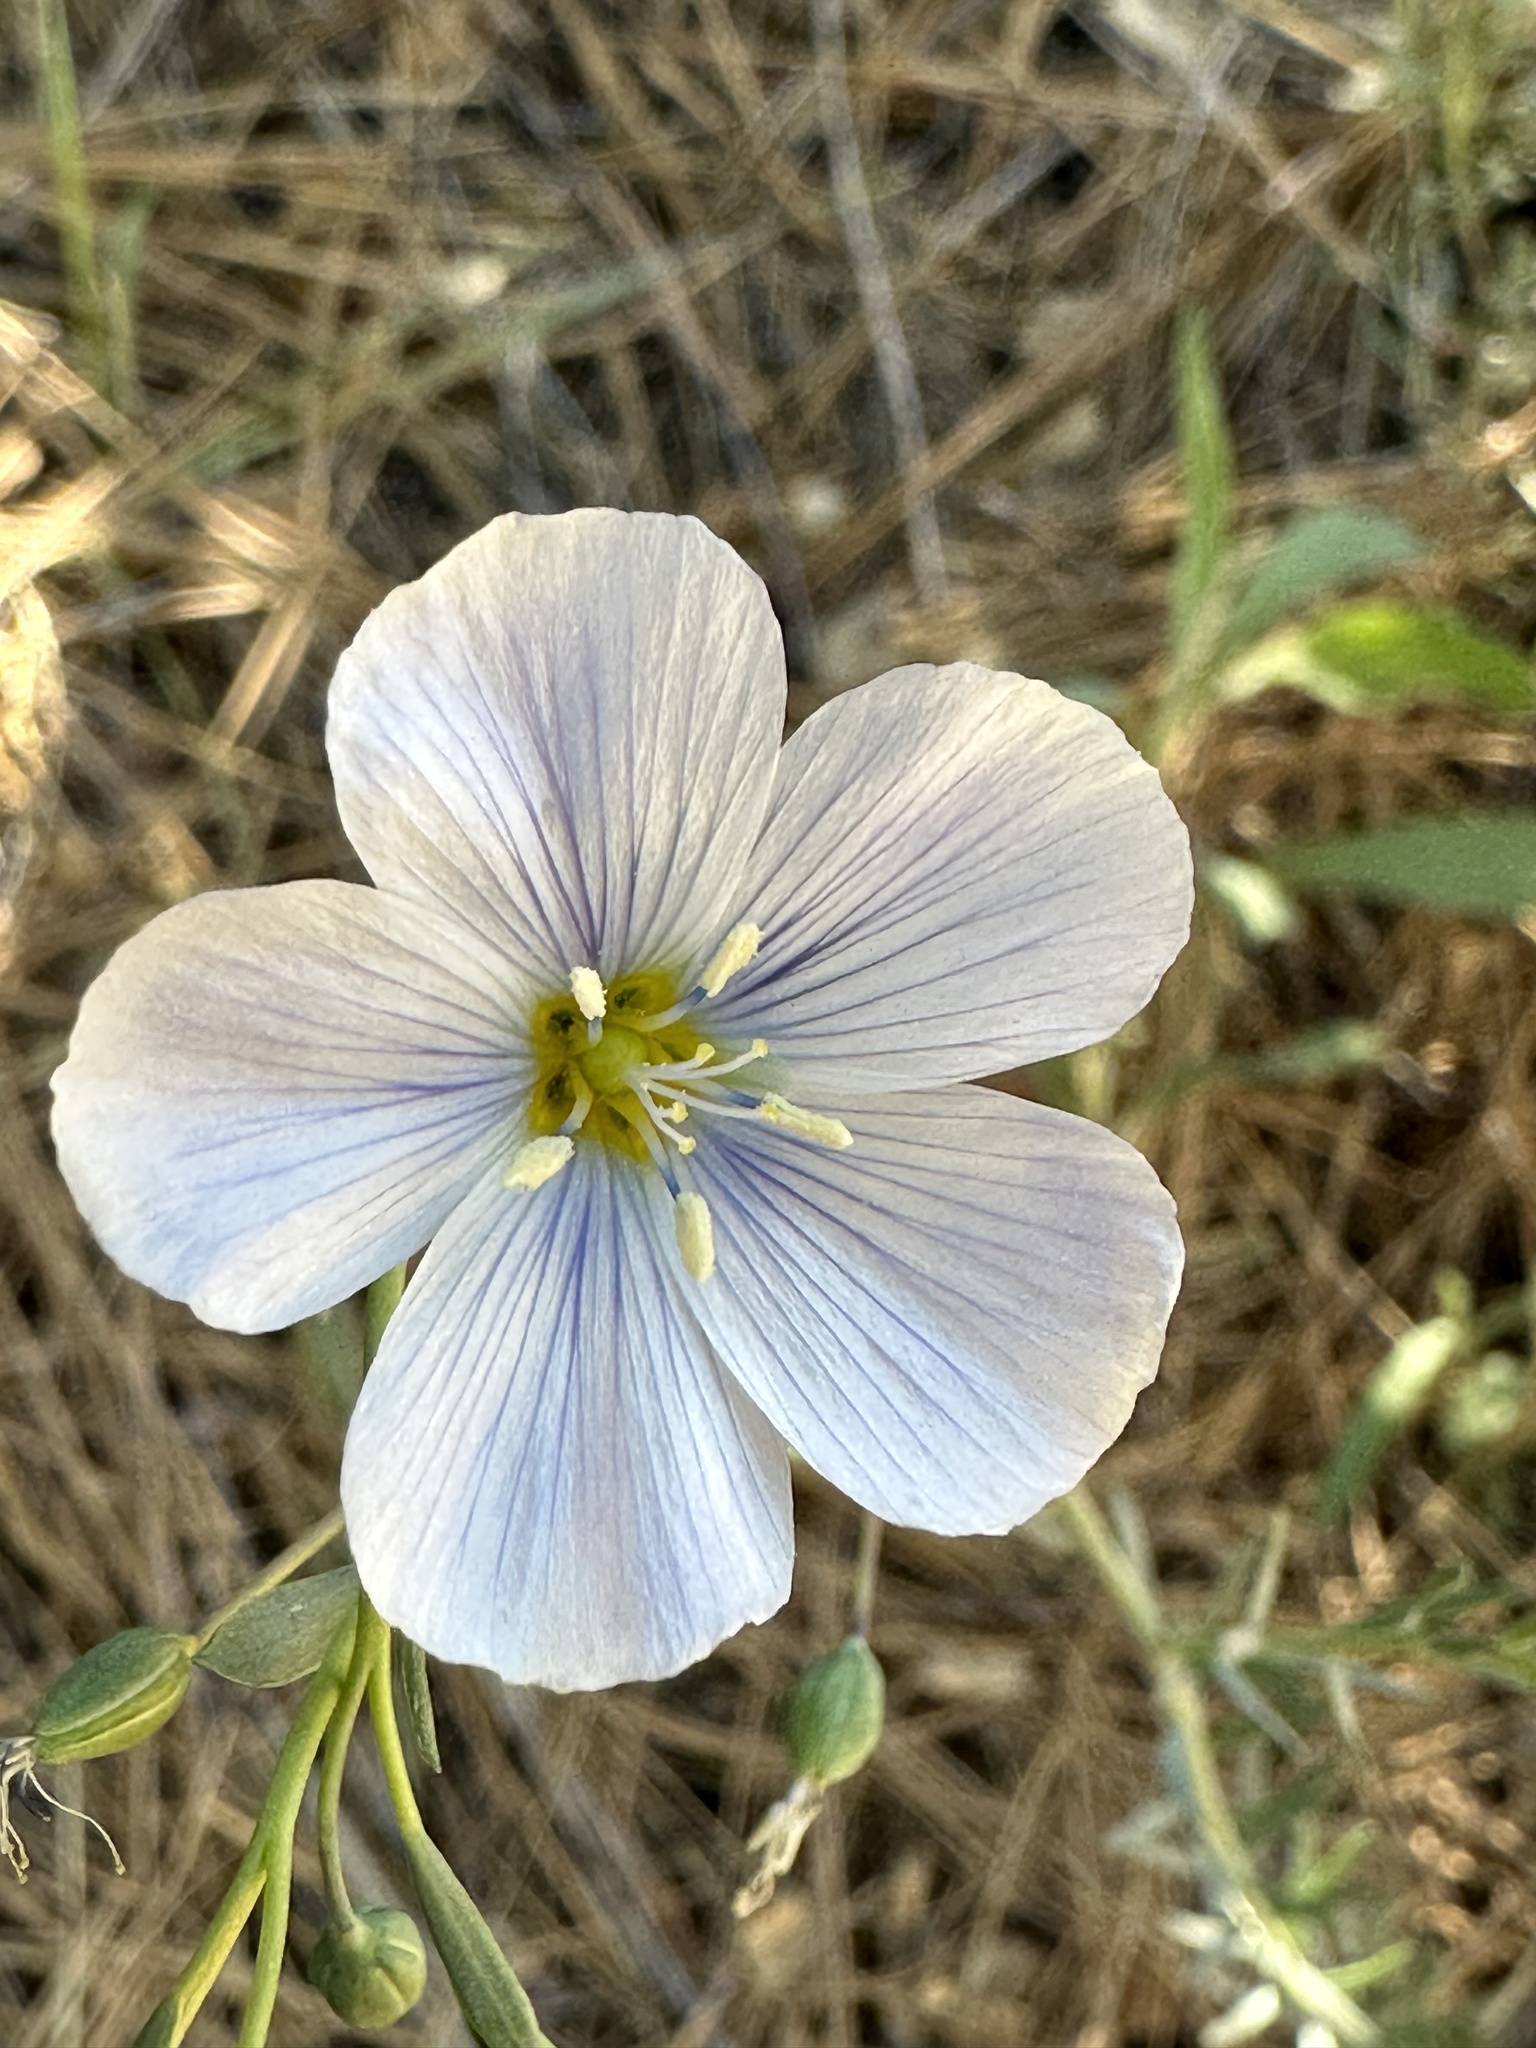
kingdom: Plantae
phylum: Tracheophyta
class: Magnoliopsida
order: Malpighiales
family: Linaceae
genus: Linum
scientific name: Linum lewisii
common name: Prairie flax
